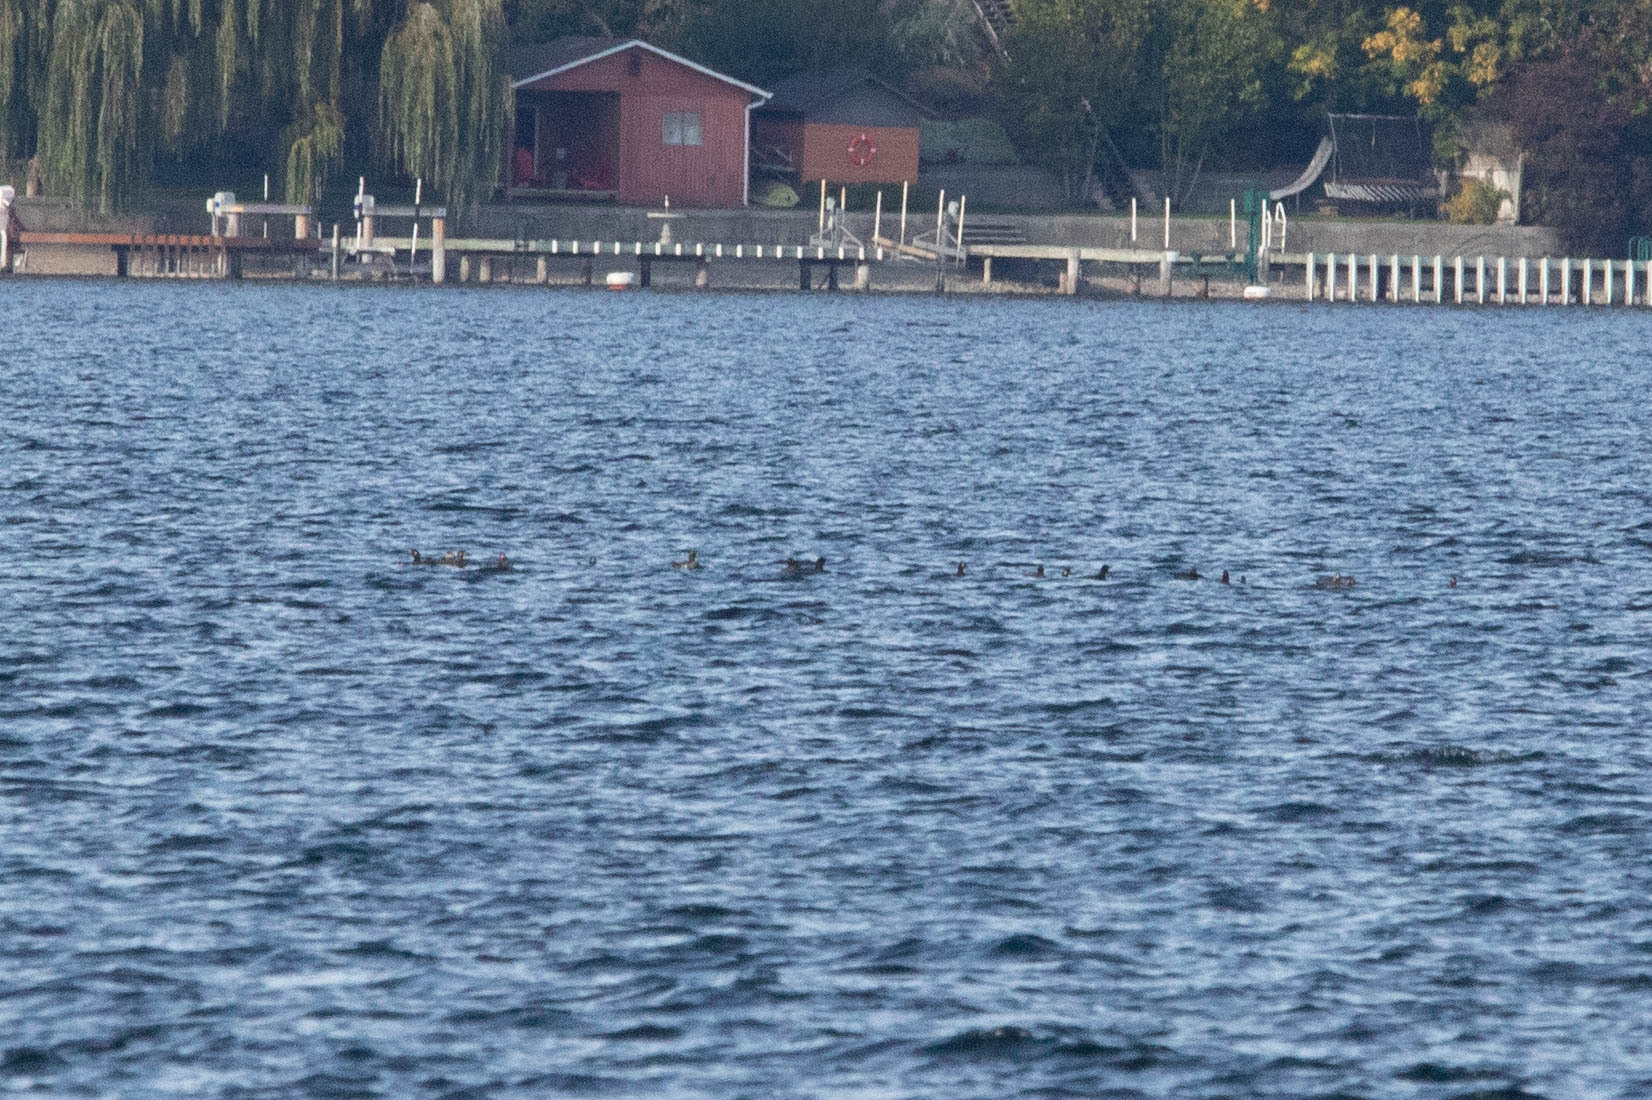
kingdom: Animalia
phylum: Chordata
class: Aves
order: Anseriformes
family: Anatidae
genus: Melanitta
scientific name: Melanitta deglandi
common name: White-winged scoter
